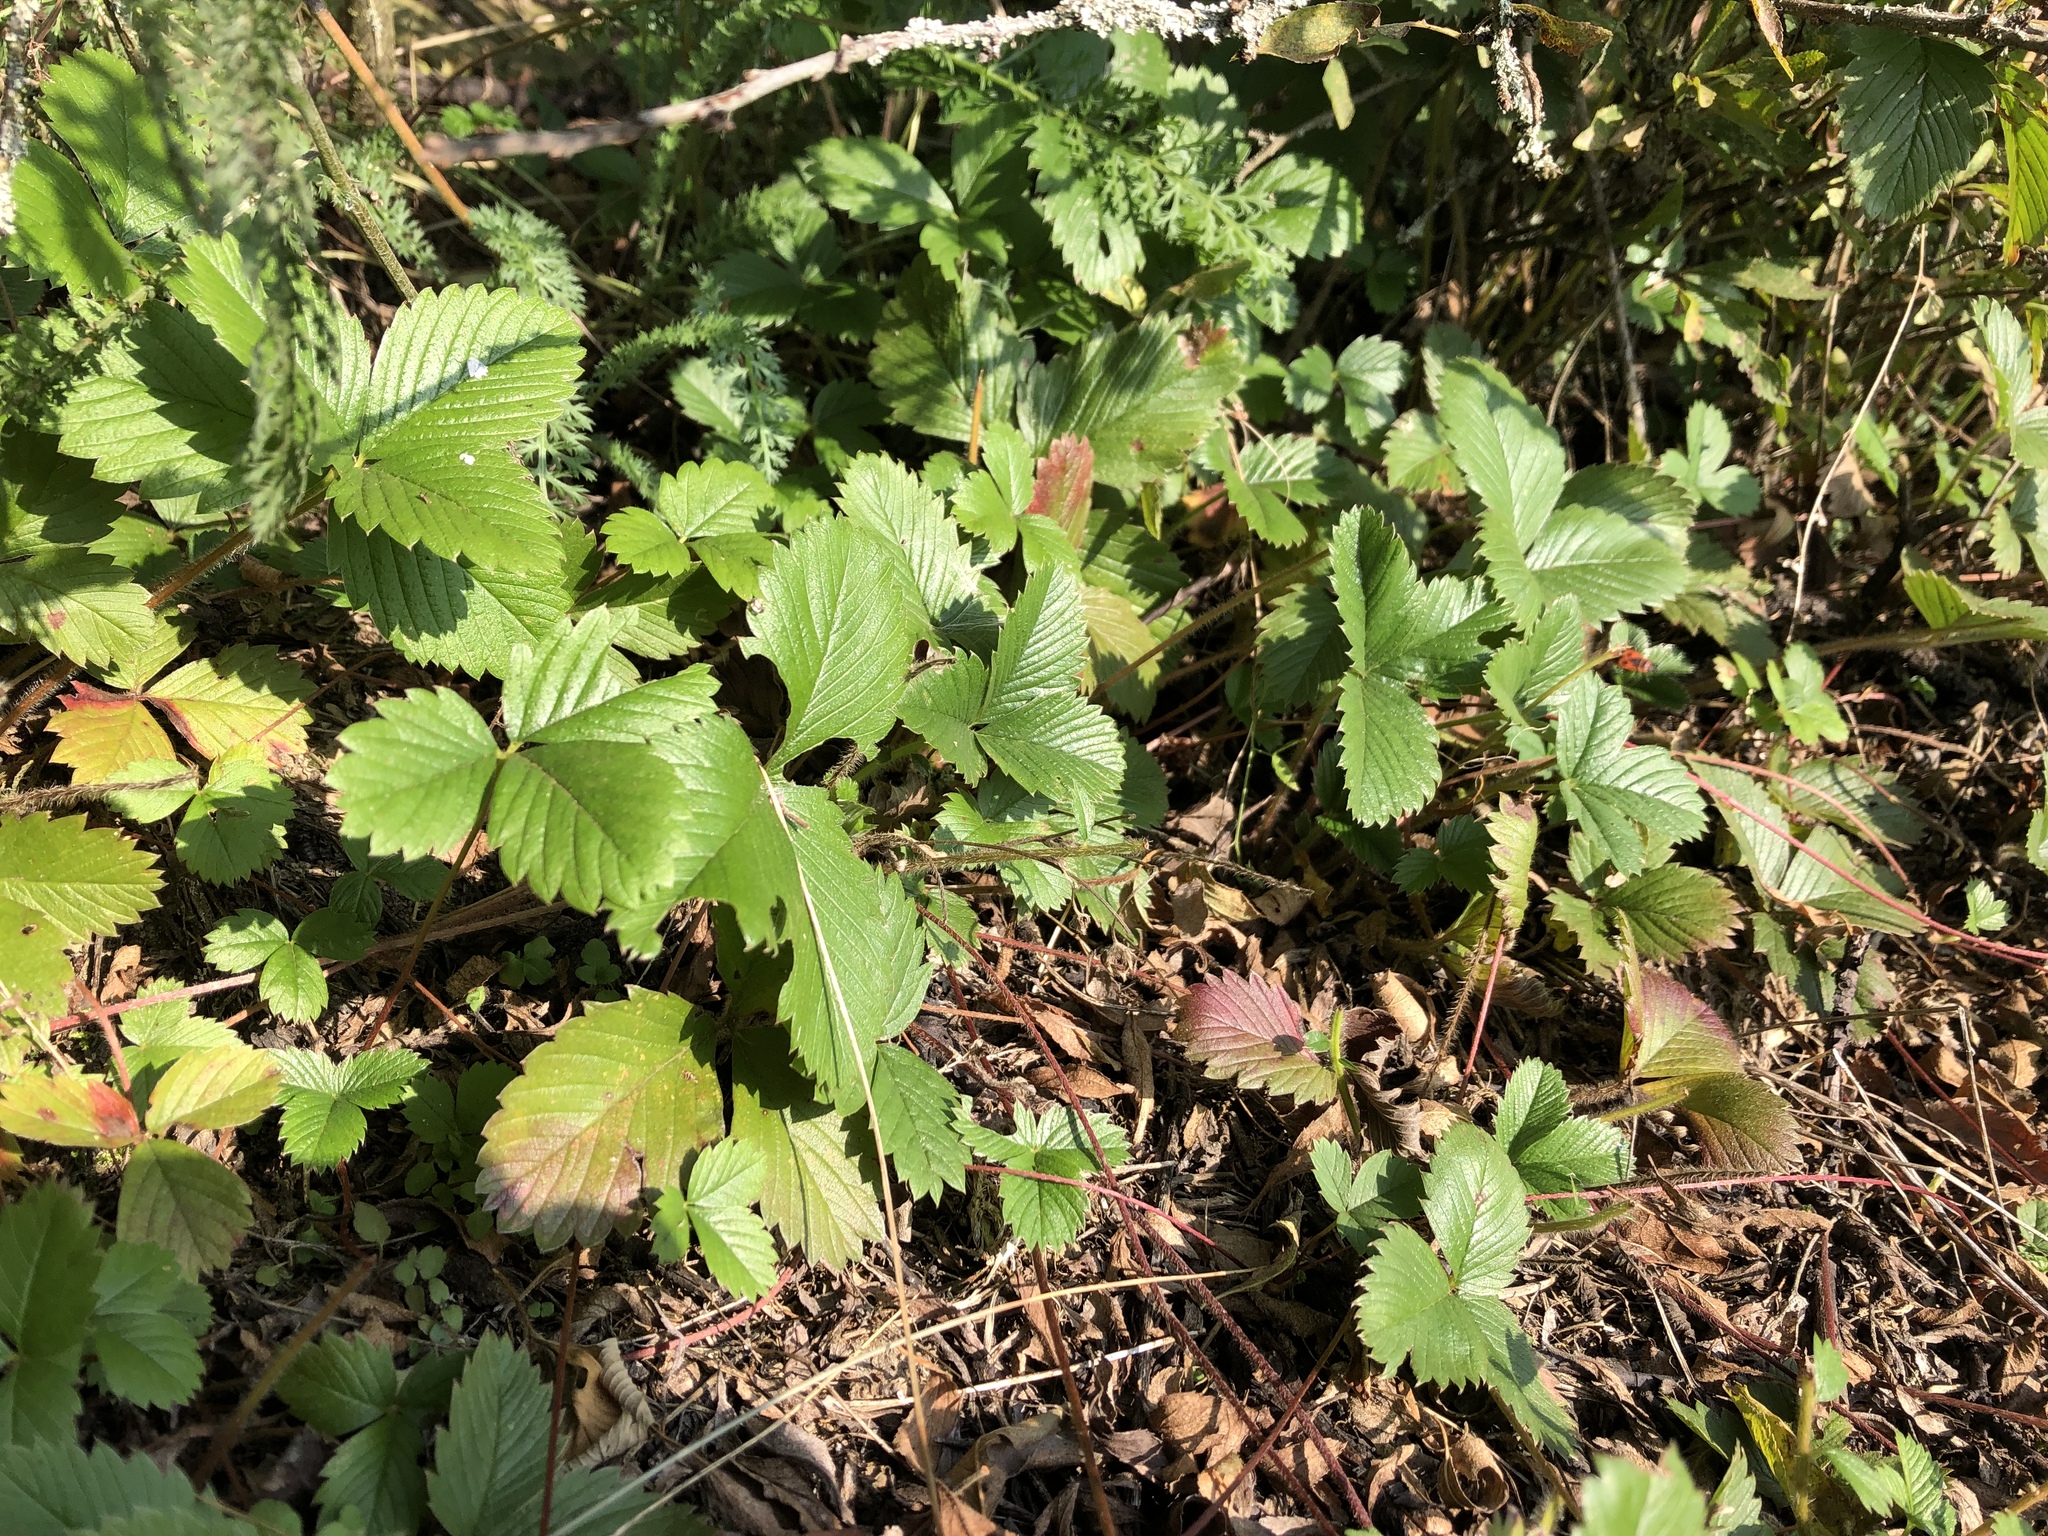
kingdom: Plantae
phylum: Tracheophyta
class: Magnoliopsida
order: Rosales
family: Rosaceae
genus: Fragaria
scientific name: Fragaria vesca
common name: Wild strawberry
